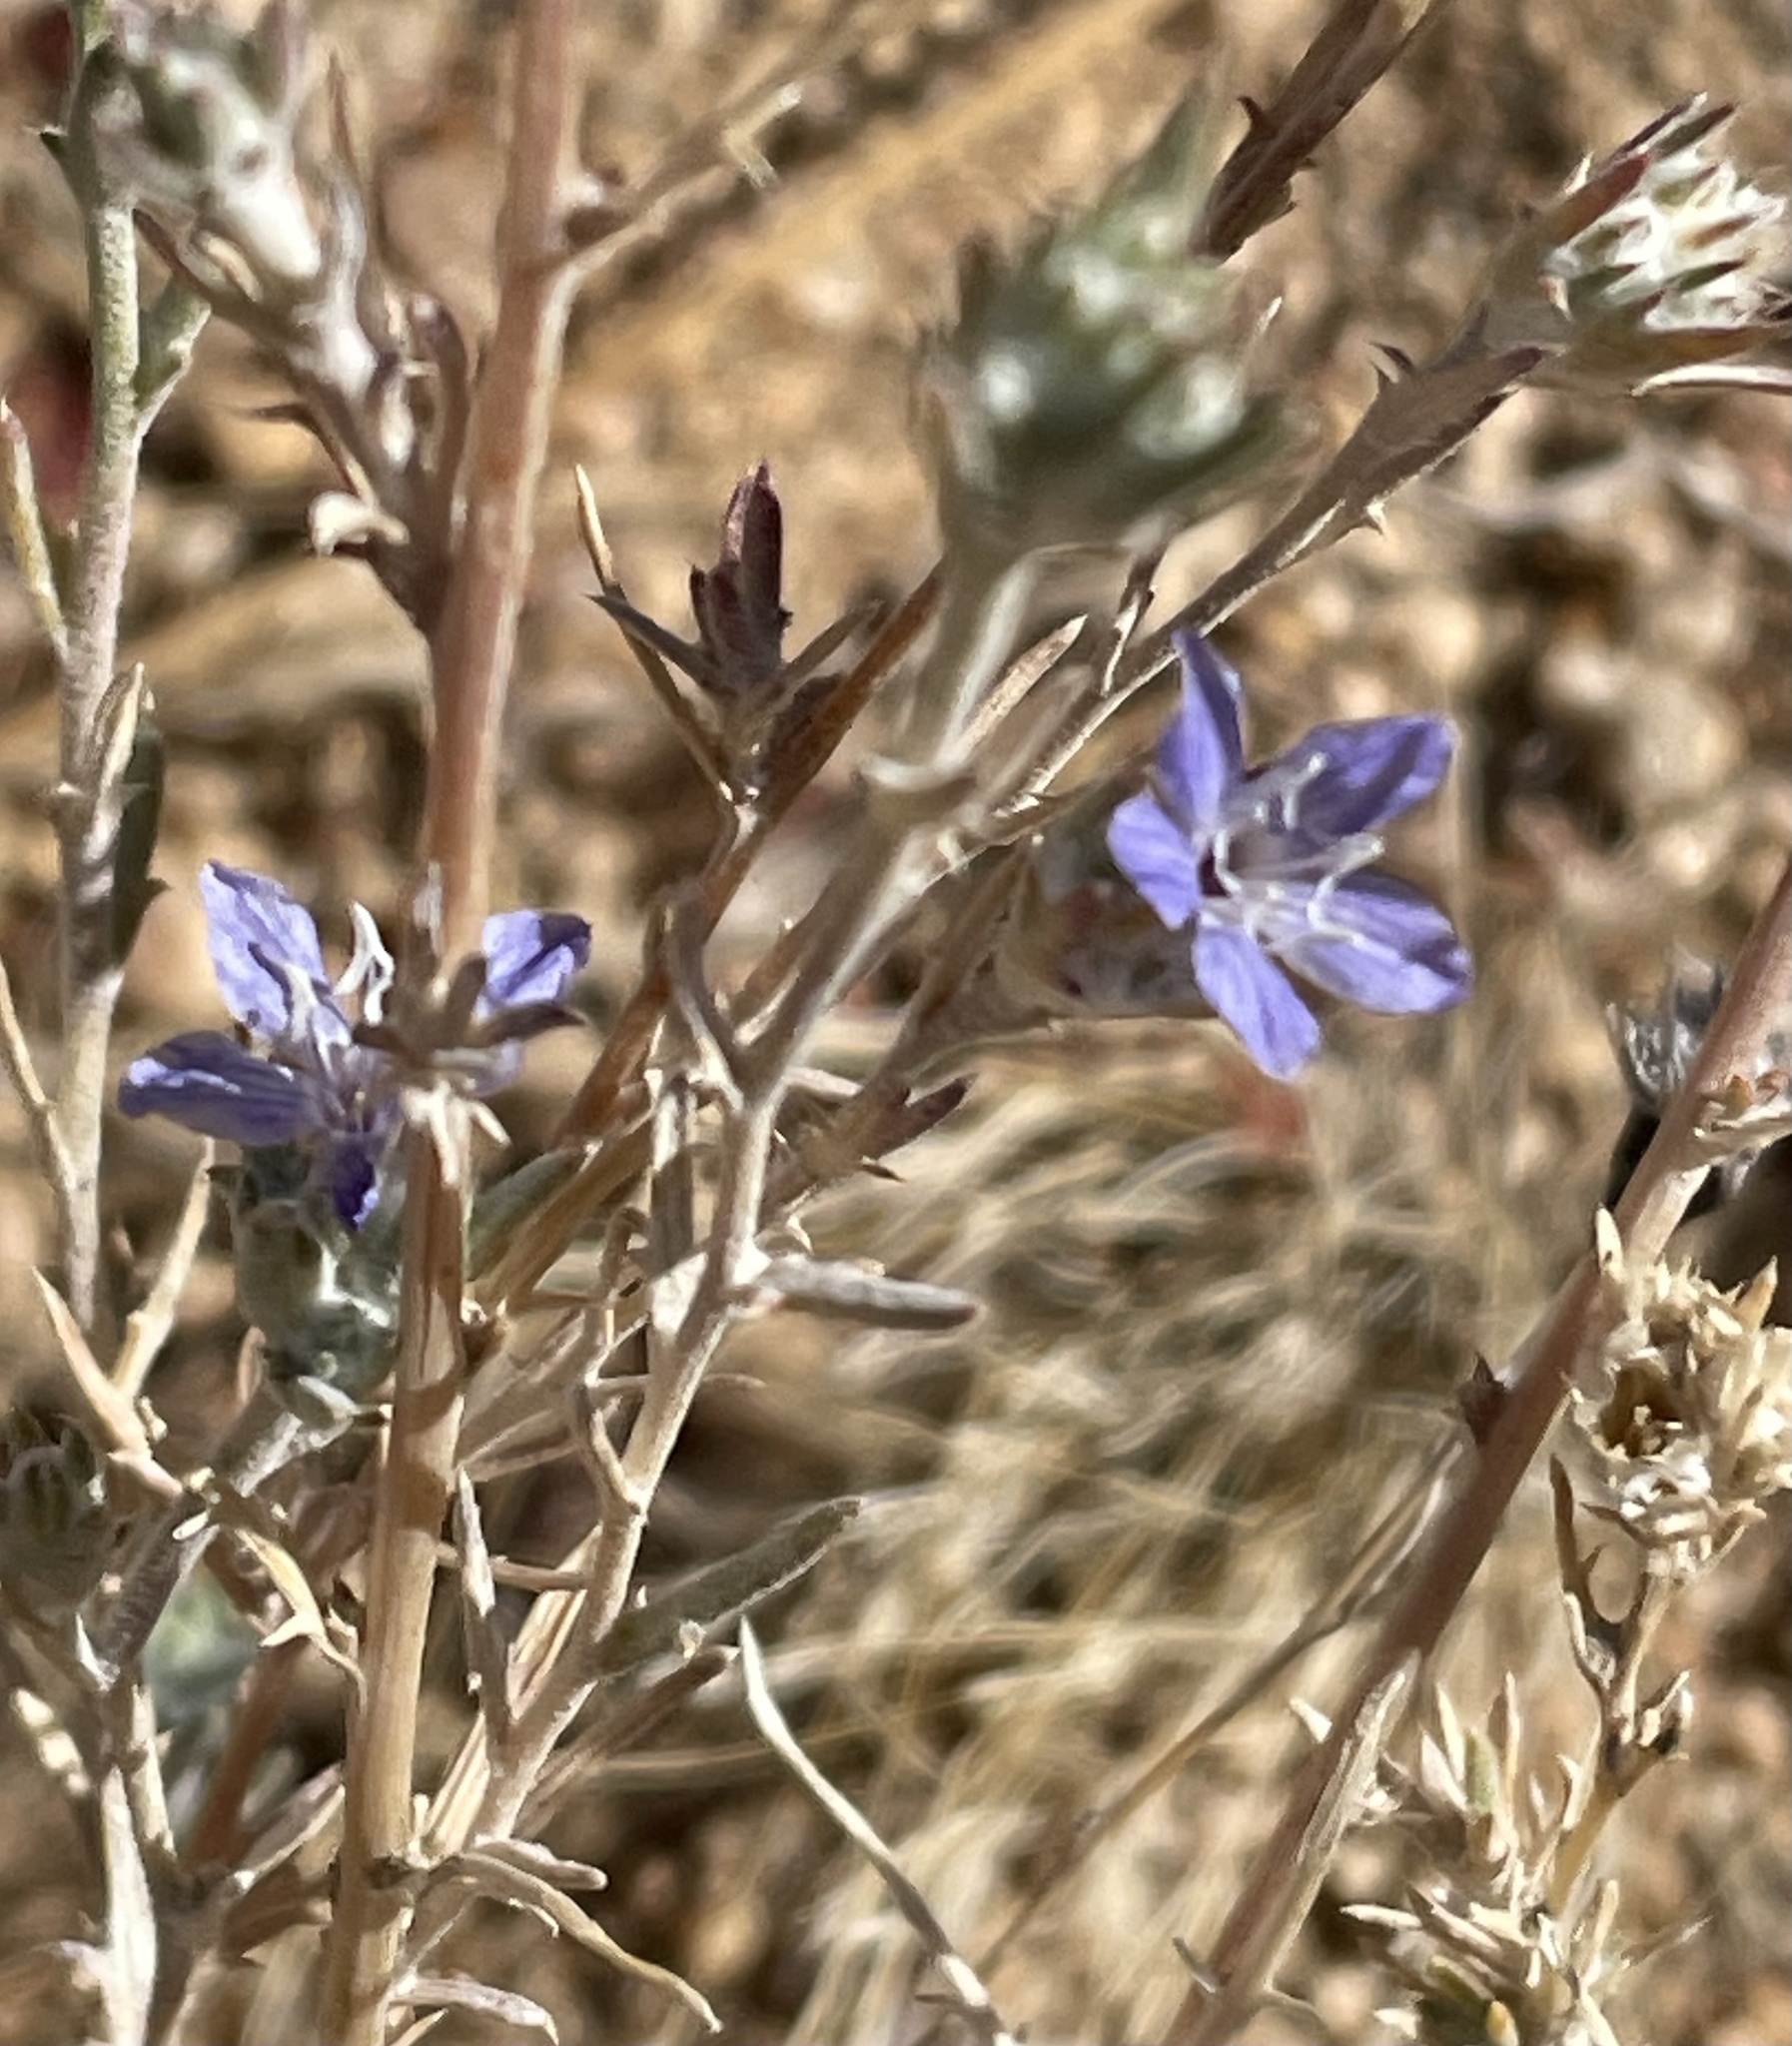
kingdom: Plantae
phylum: Tracheophyta
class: Magnoliopsida
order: Ericales
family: Polemoniaceae
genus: Eriastrum
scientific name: Eriastrum densifolium
